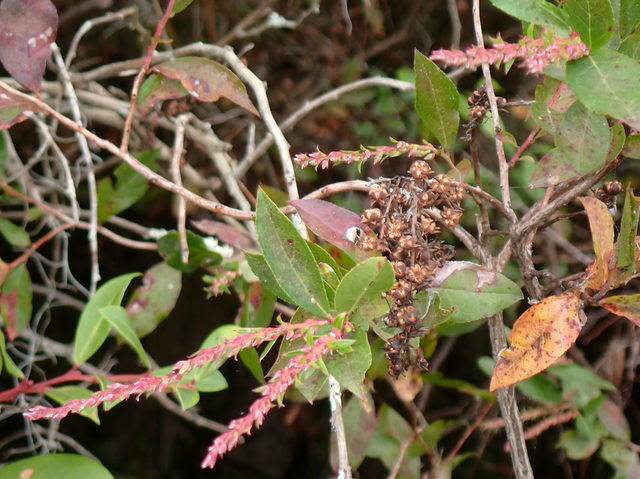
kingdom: Plantae
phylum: Tracheophyta
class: Magnoliopsida
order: Ericales
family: Ericaceae
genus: Eubotrys
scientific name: Eubotrys racemosa
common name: Fetterbush
